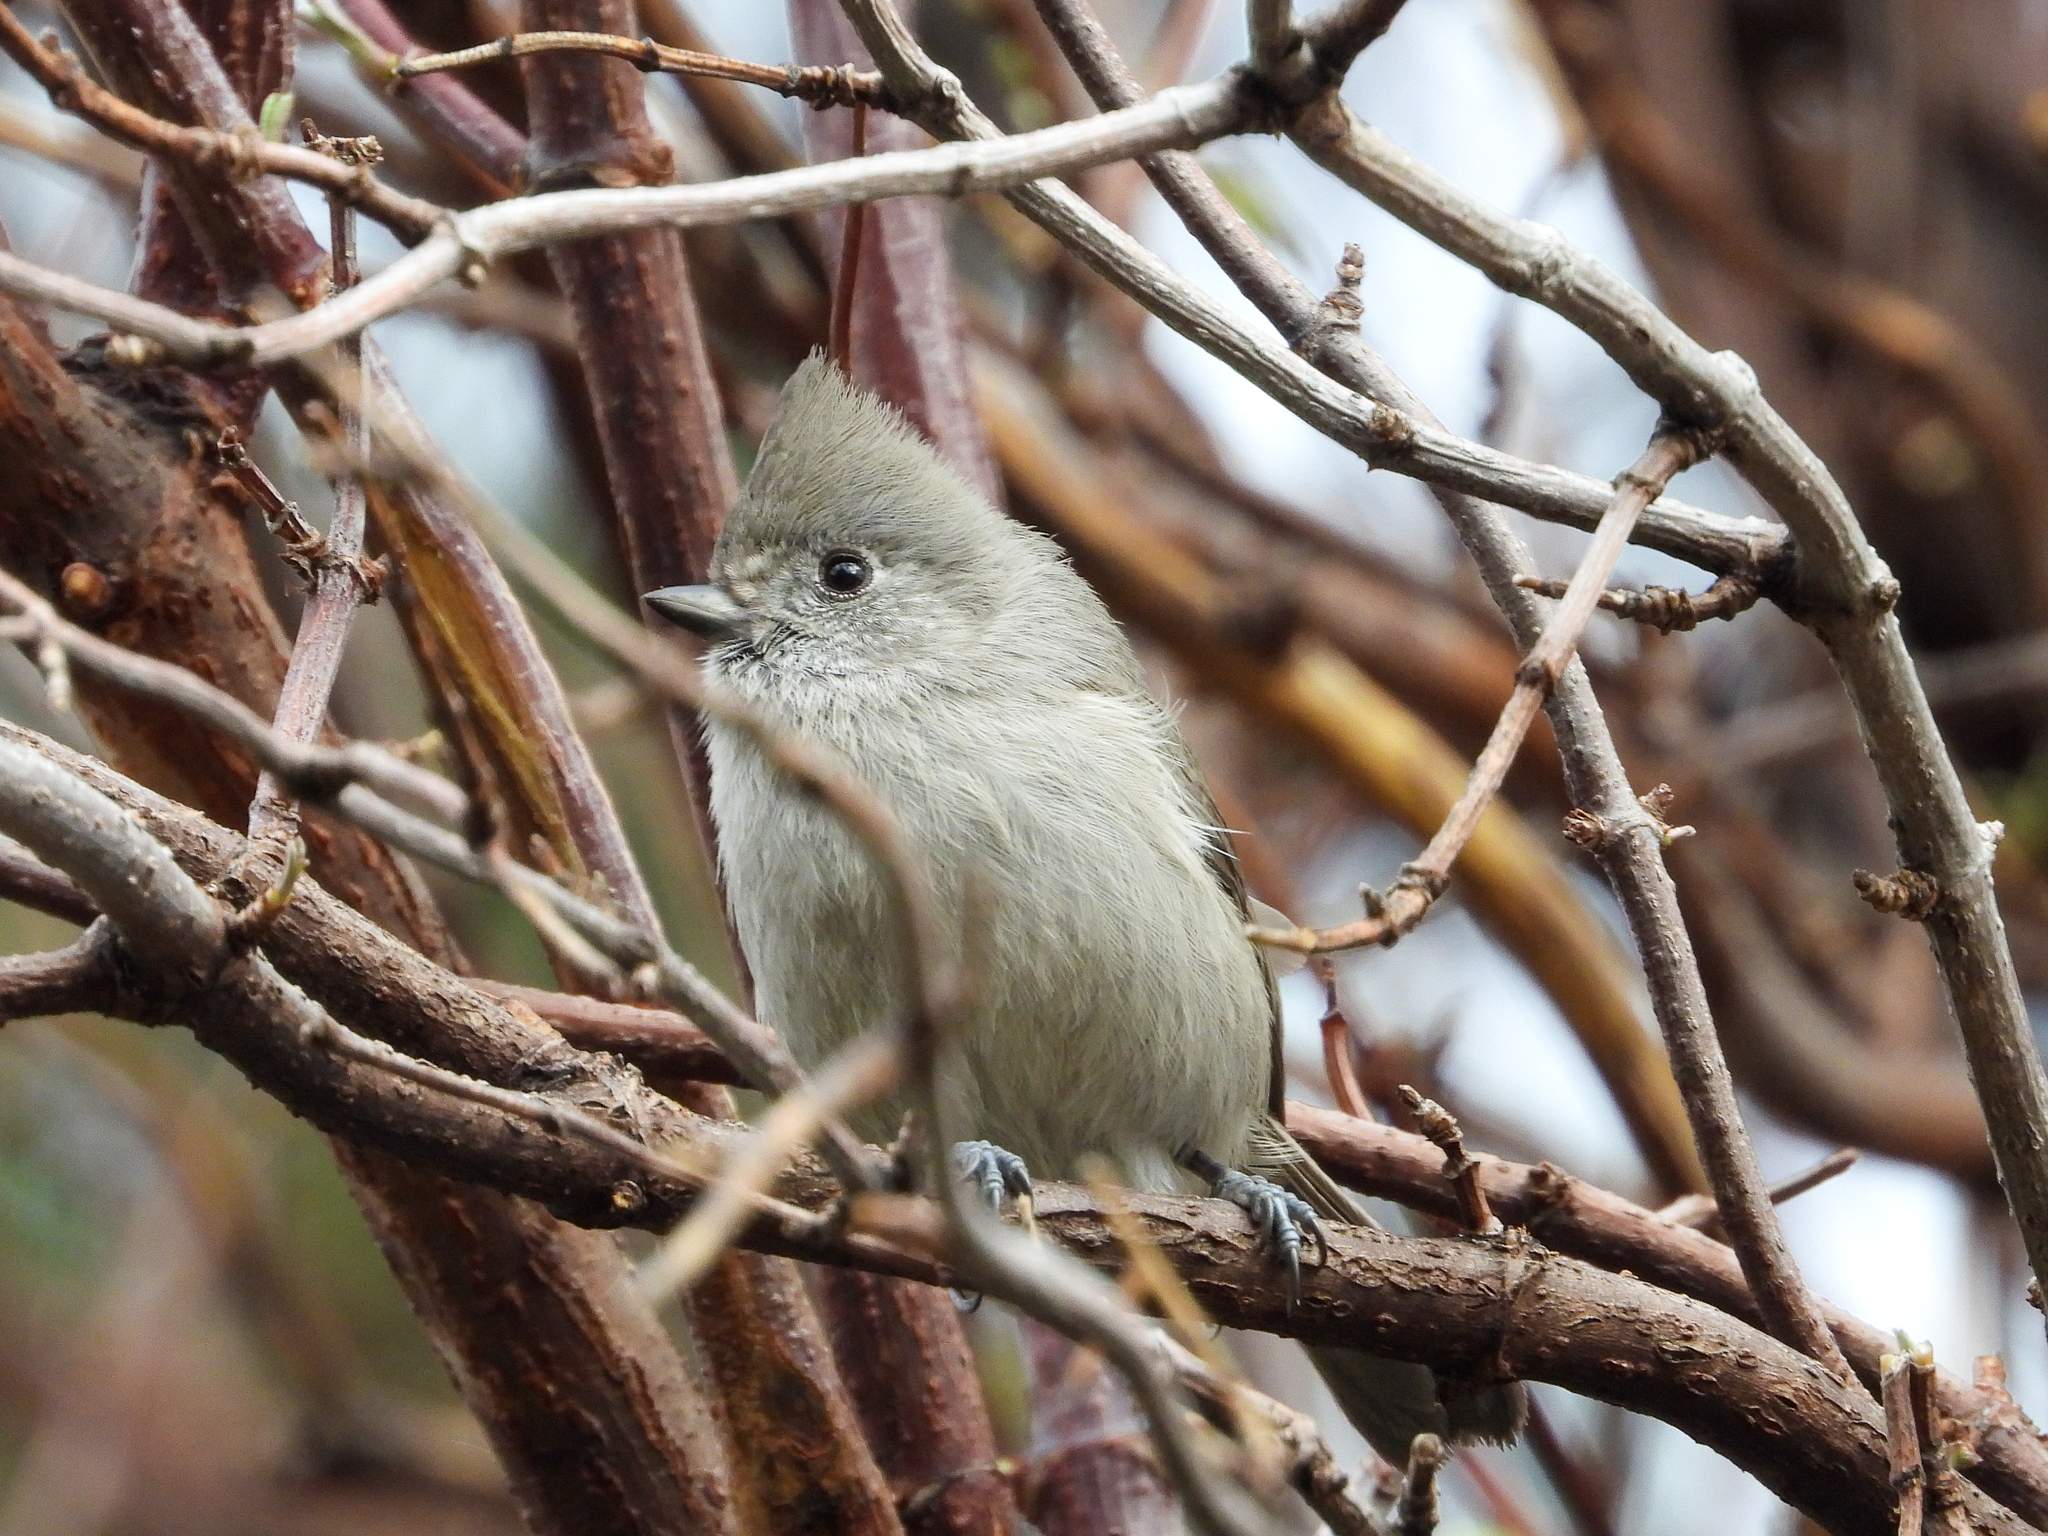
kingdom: Animalia
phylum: Chordata
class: Aves
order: Passeriformes
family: Paridae
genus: Baeolophus
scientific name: Baeolophus inornatus
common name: Oak titmouse
